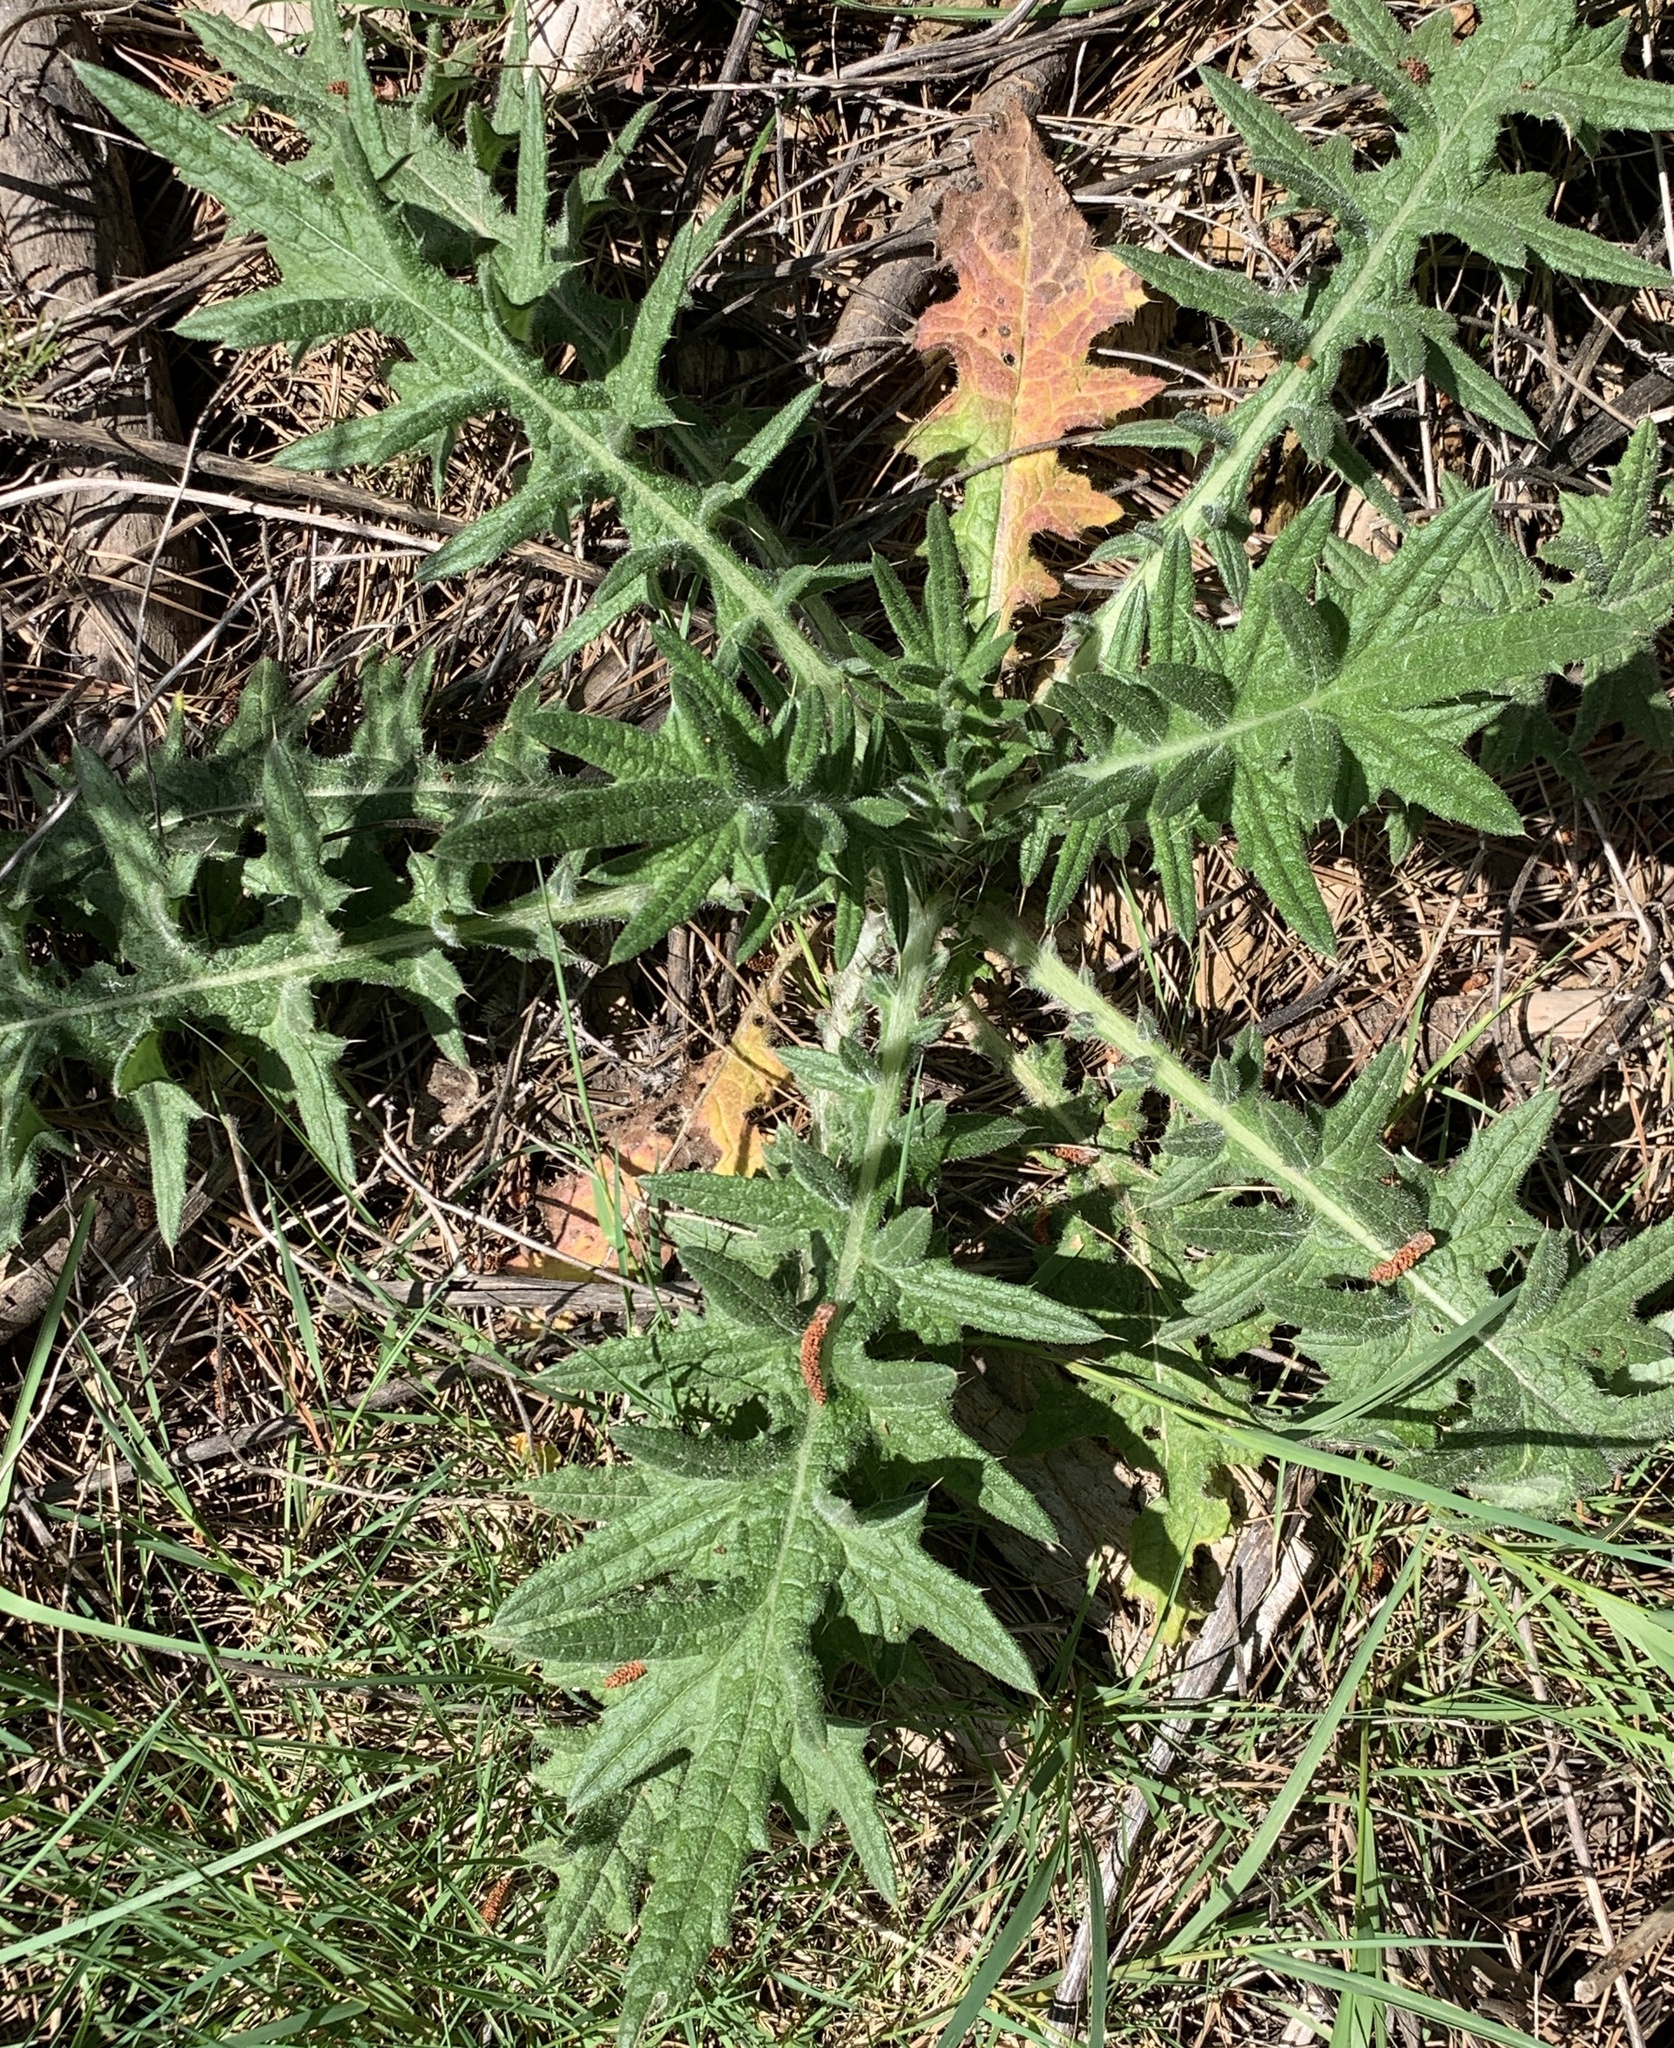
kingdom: Plantae
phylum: Tracheophyta
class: Magnoliopsida
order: Asterales
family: Asteraceae
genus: Cirsium
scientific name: Cirsium vulgare
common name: Bull thistle
